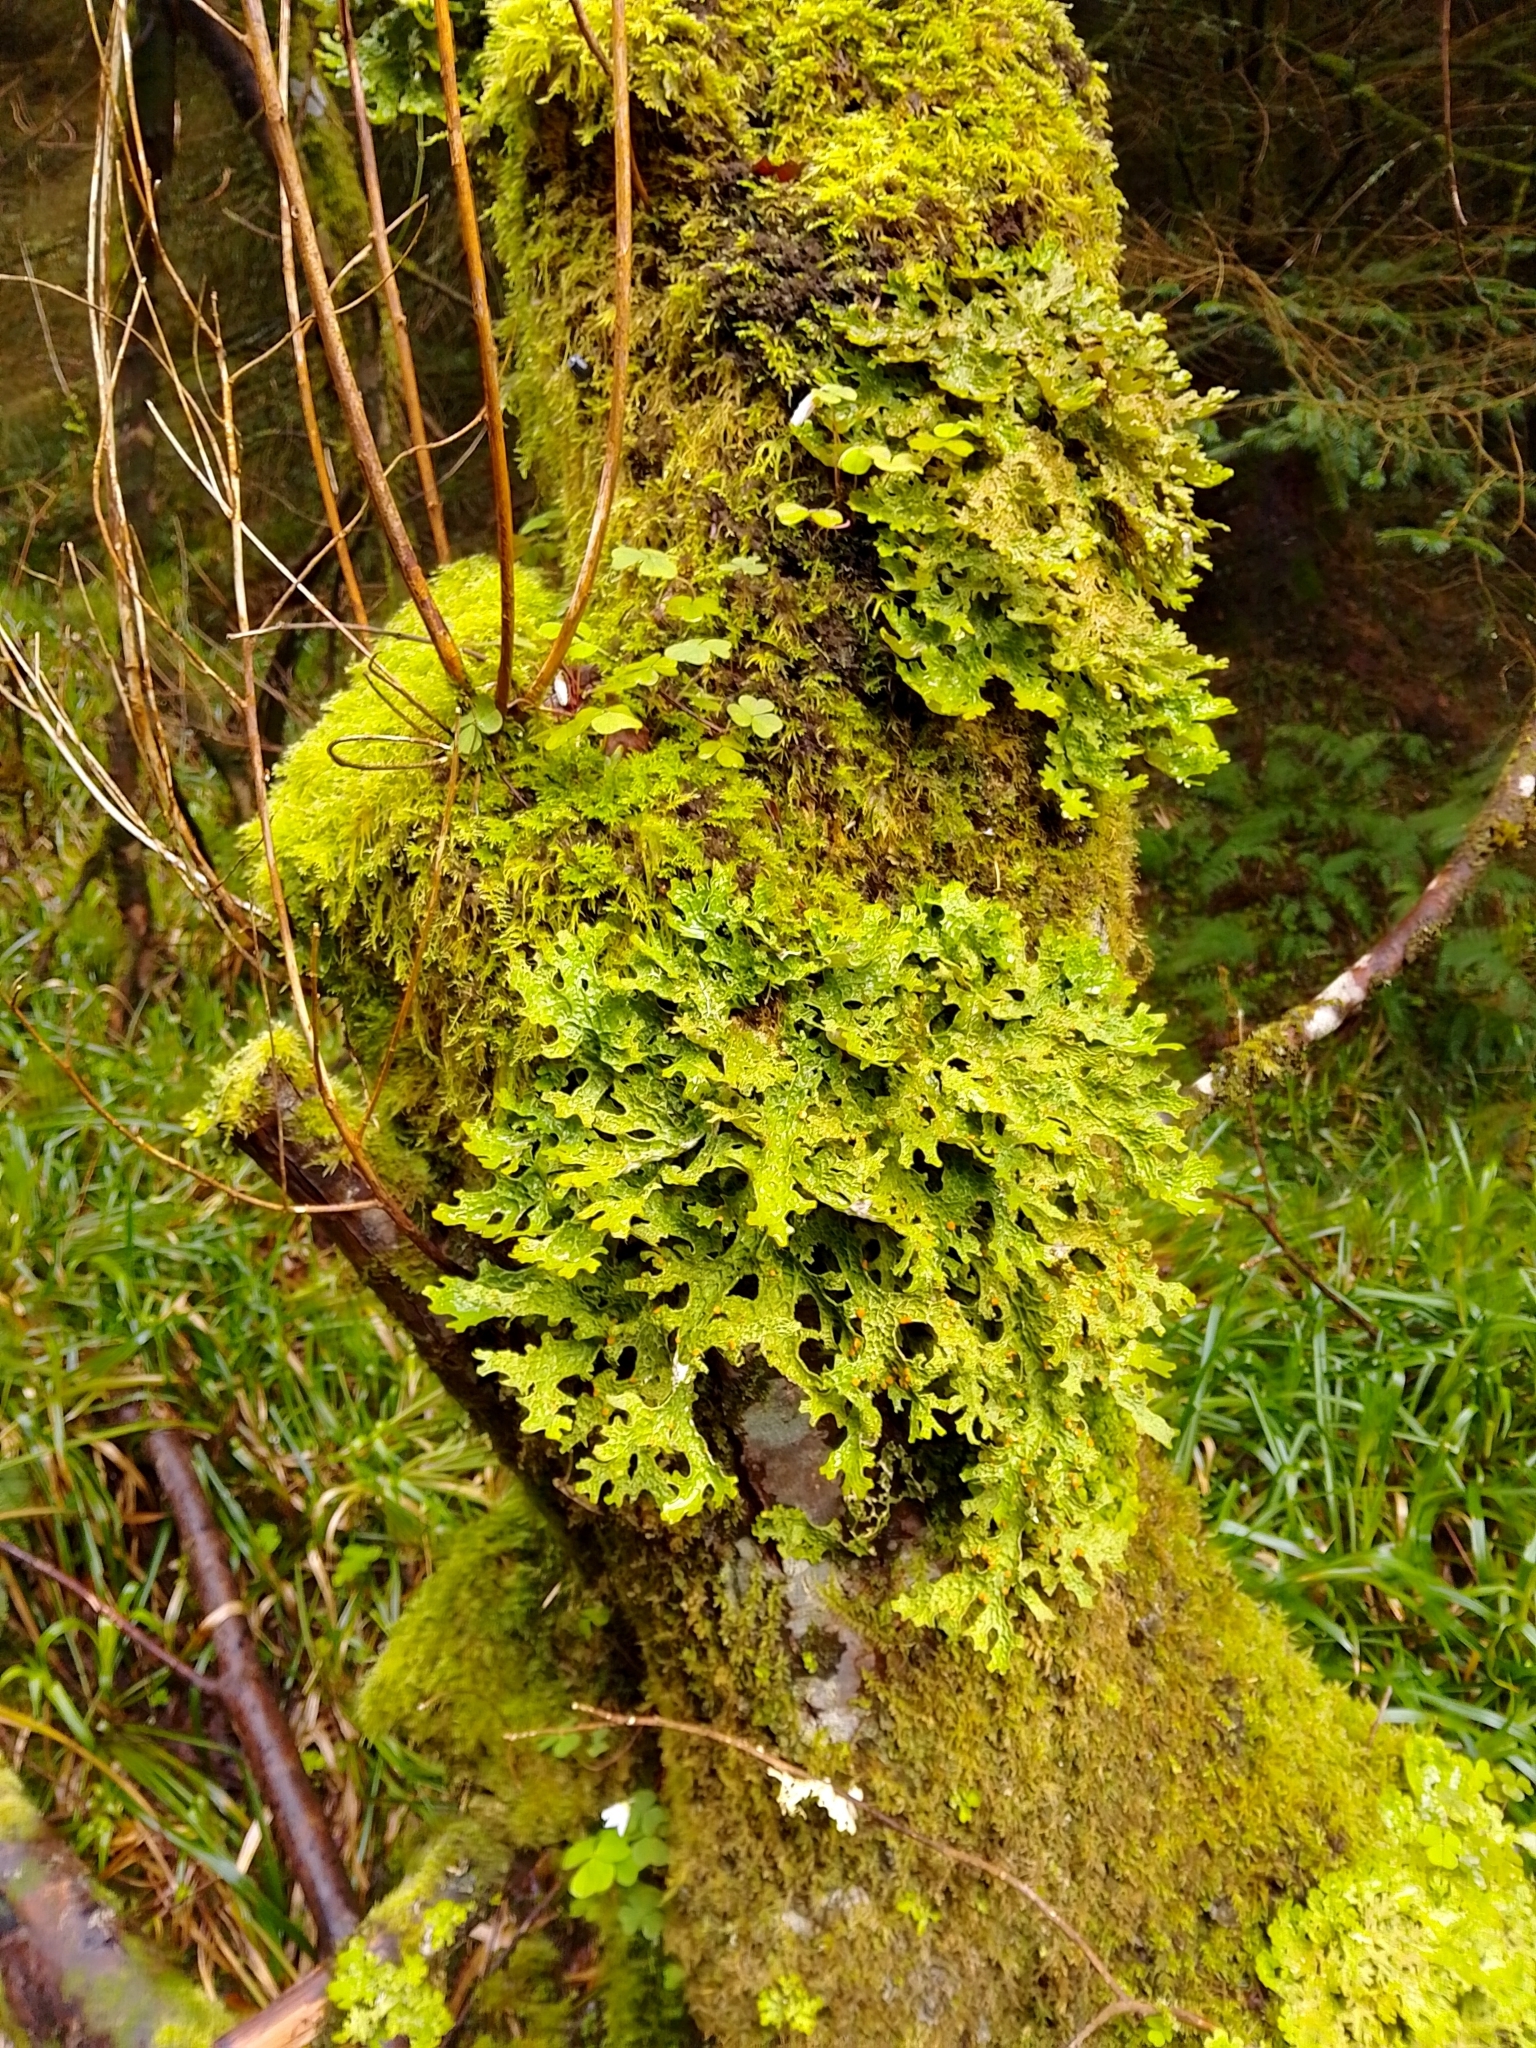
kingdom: Fungi
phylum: Ascomycota
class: Lecanoromycetes
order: Peltigerales
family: Lobariaceae
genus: Lobaria
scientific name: Lobaria pulmonaria
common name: Lungwort
